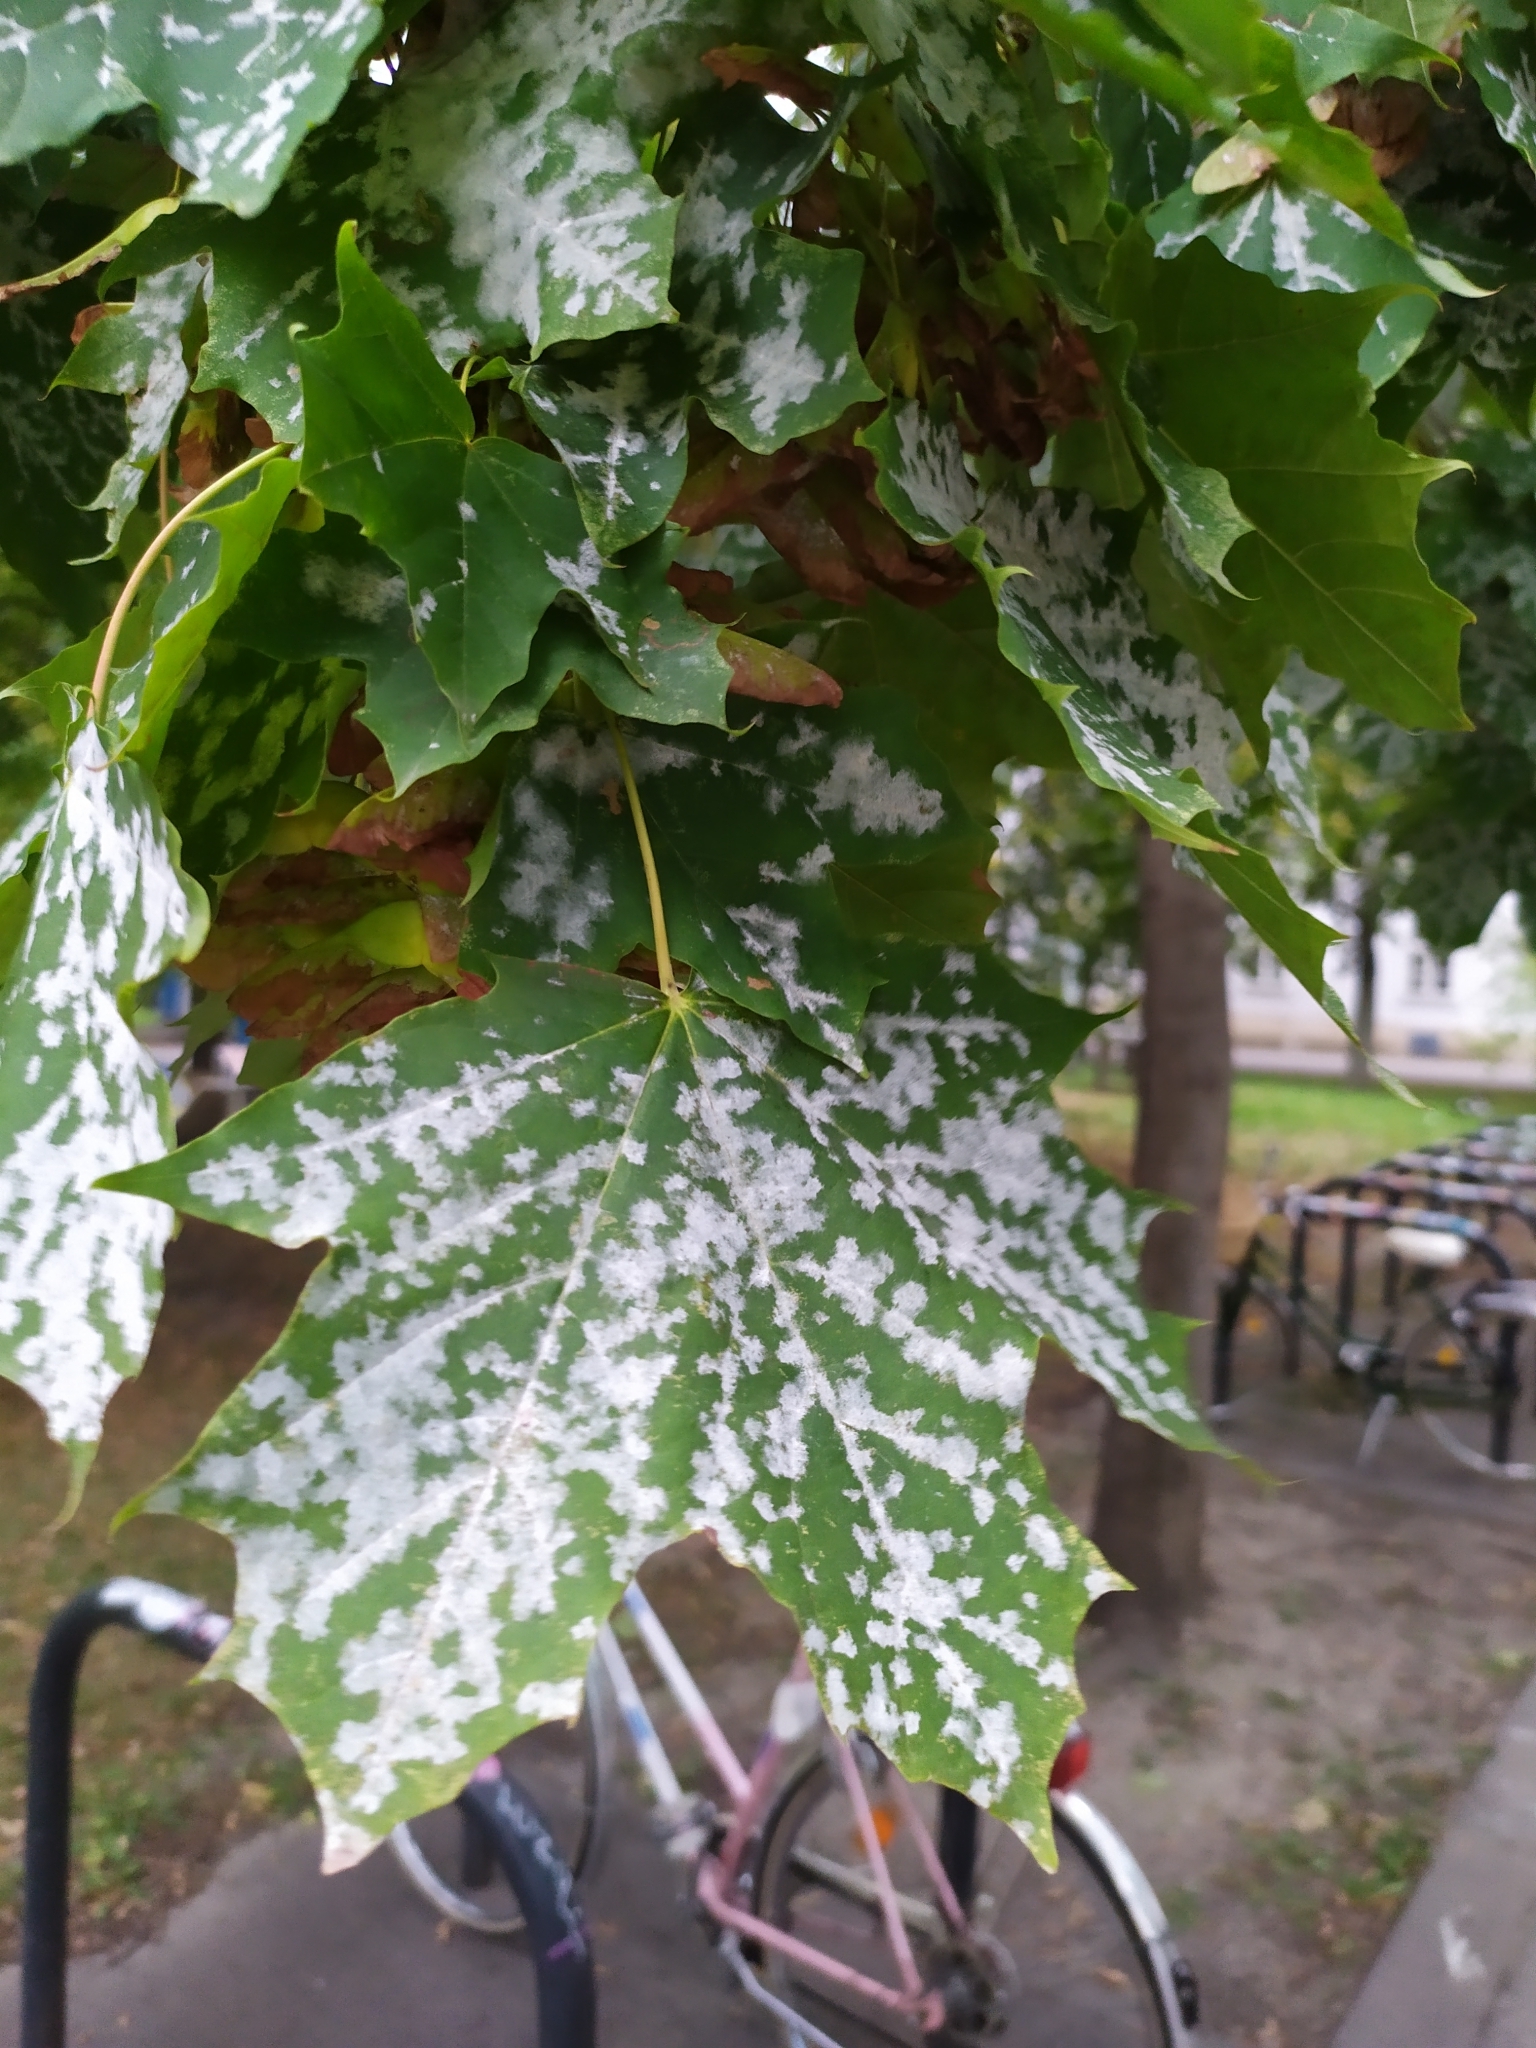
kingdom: Fungi
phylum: Ascomycota
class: Leotiomycetes
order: Helotiales
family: Erysiphaceae
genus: Sawadaea
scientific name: Sawadaea tulasnei
